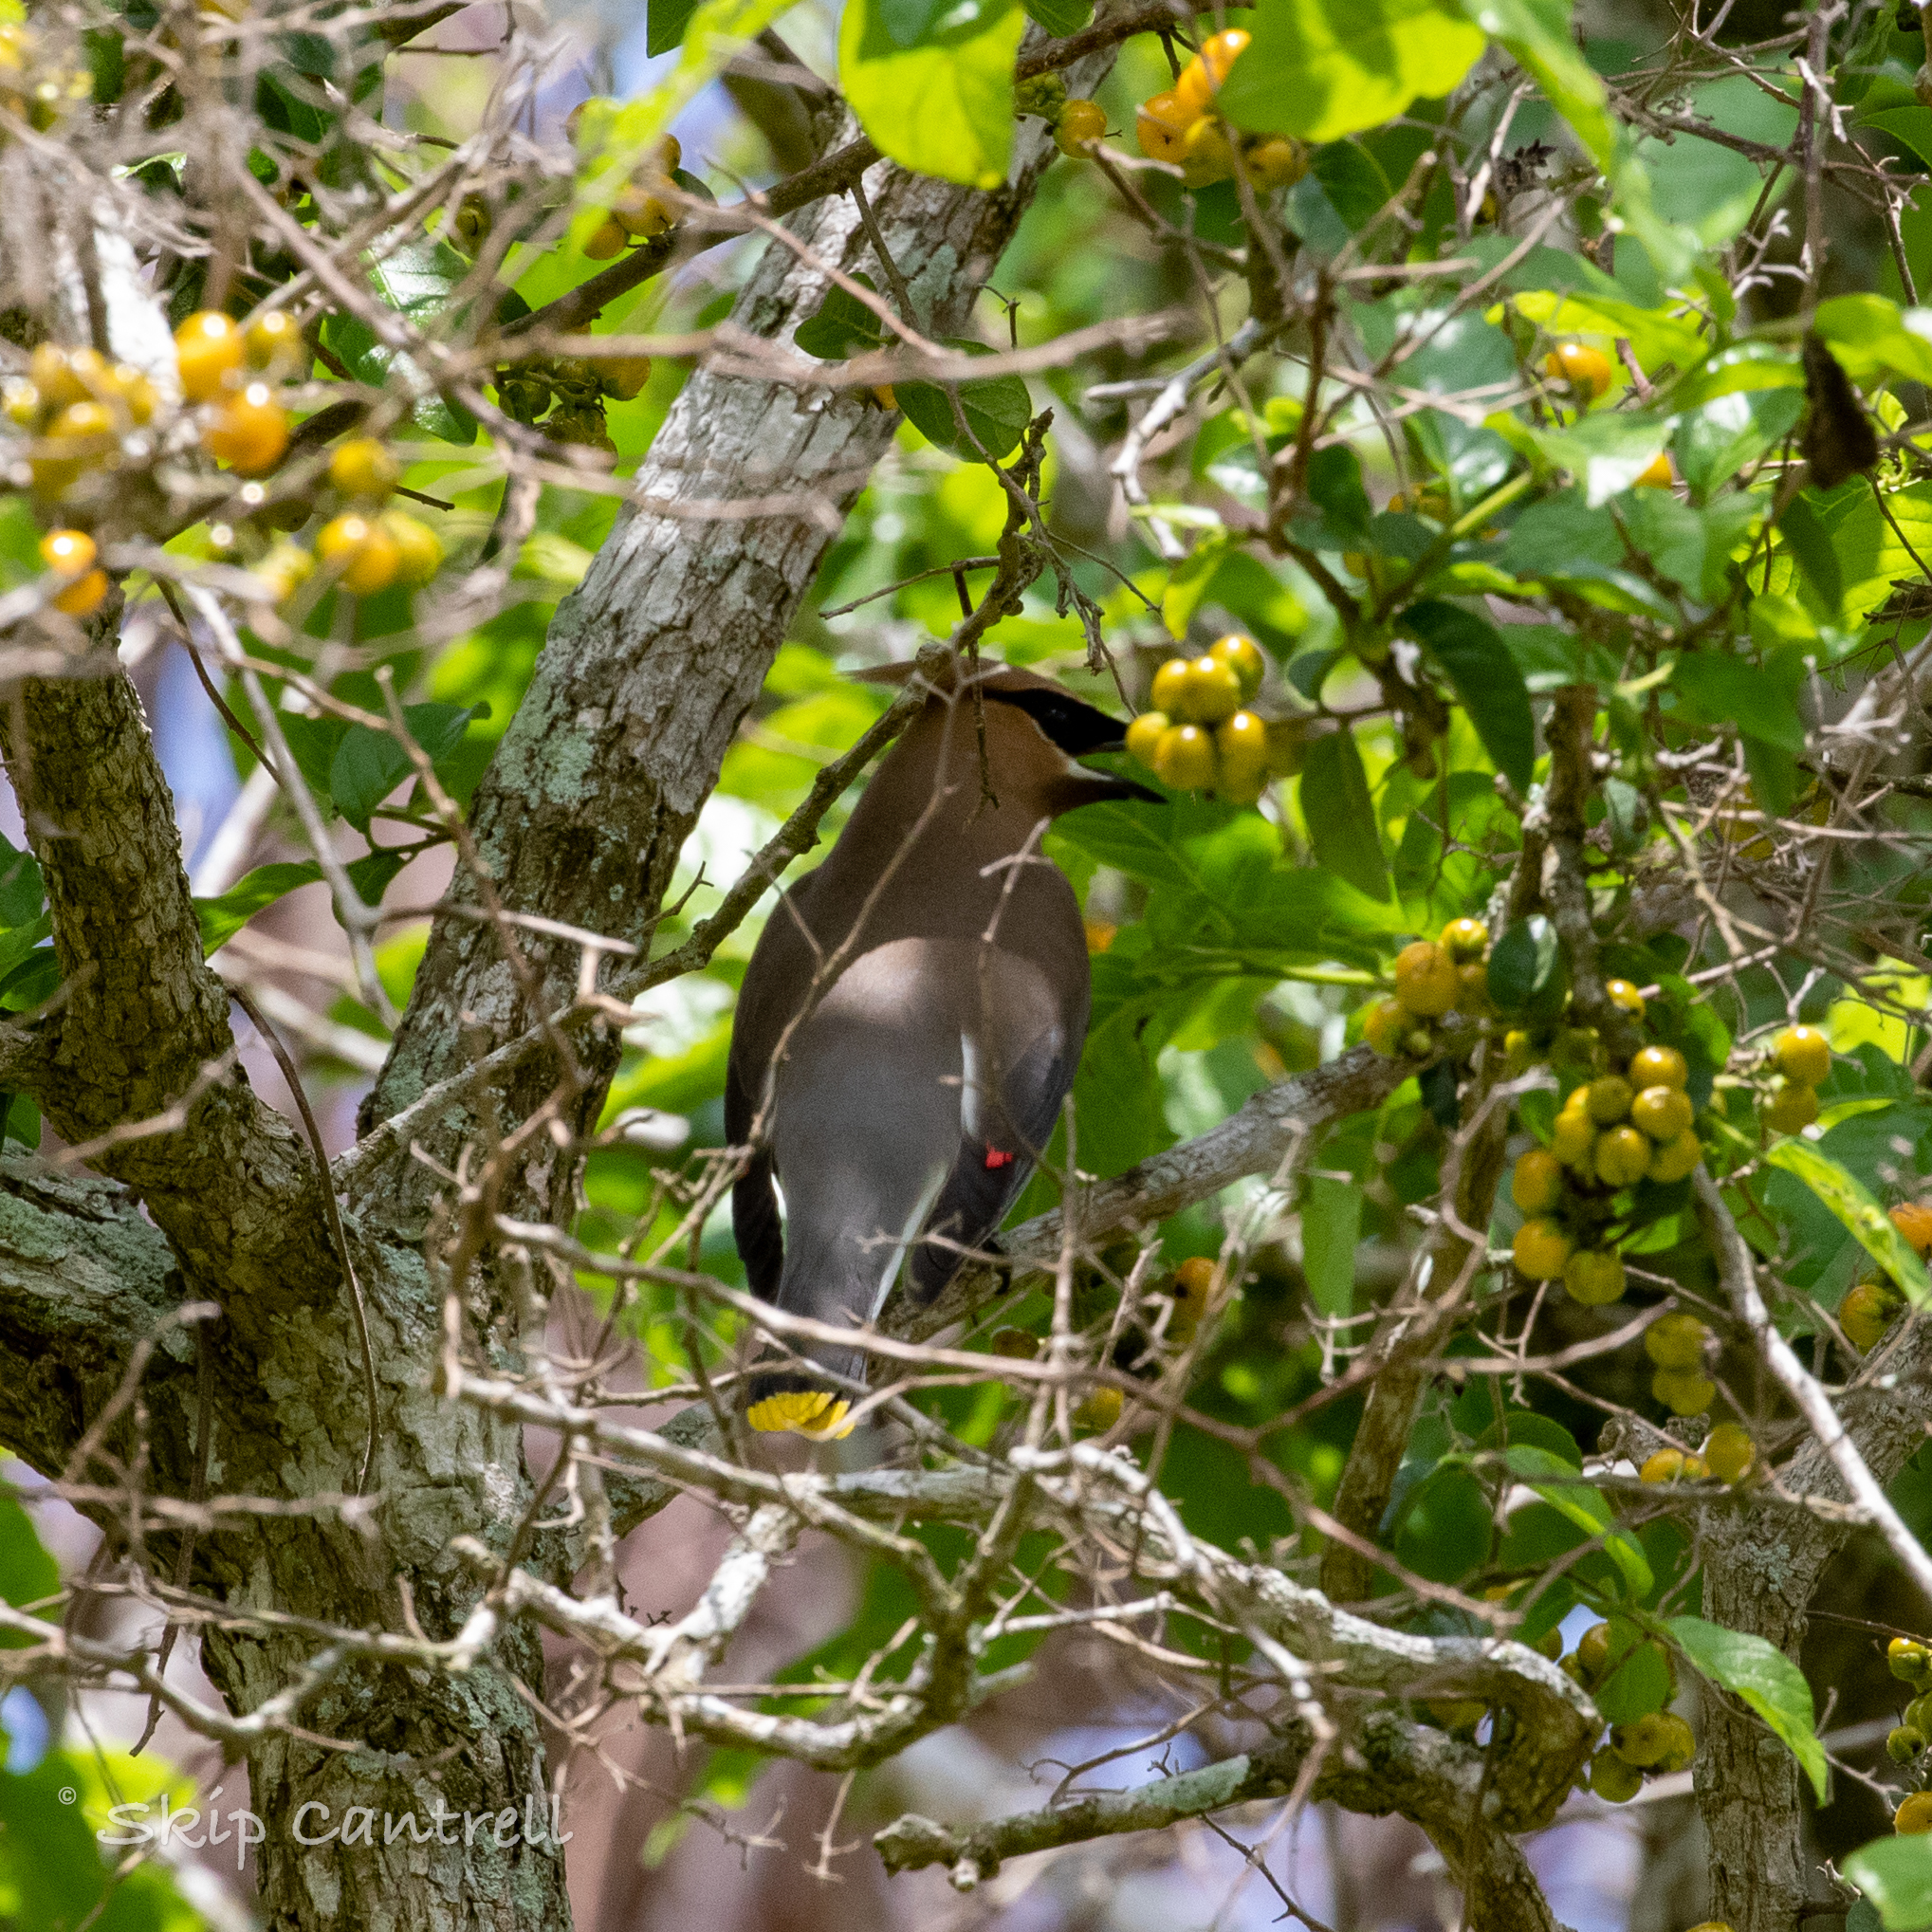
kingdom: Animalia
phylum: Chordata
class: Aves
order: Passeriformes
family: Bombycillidae
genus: Bombycilla
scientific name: Bombycilla cedrorum
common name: Cedar waxwing
